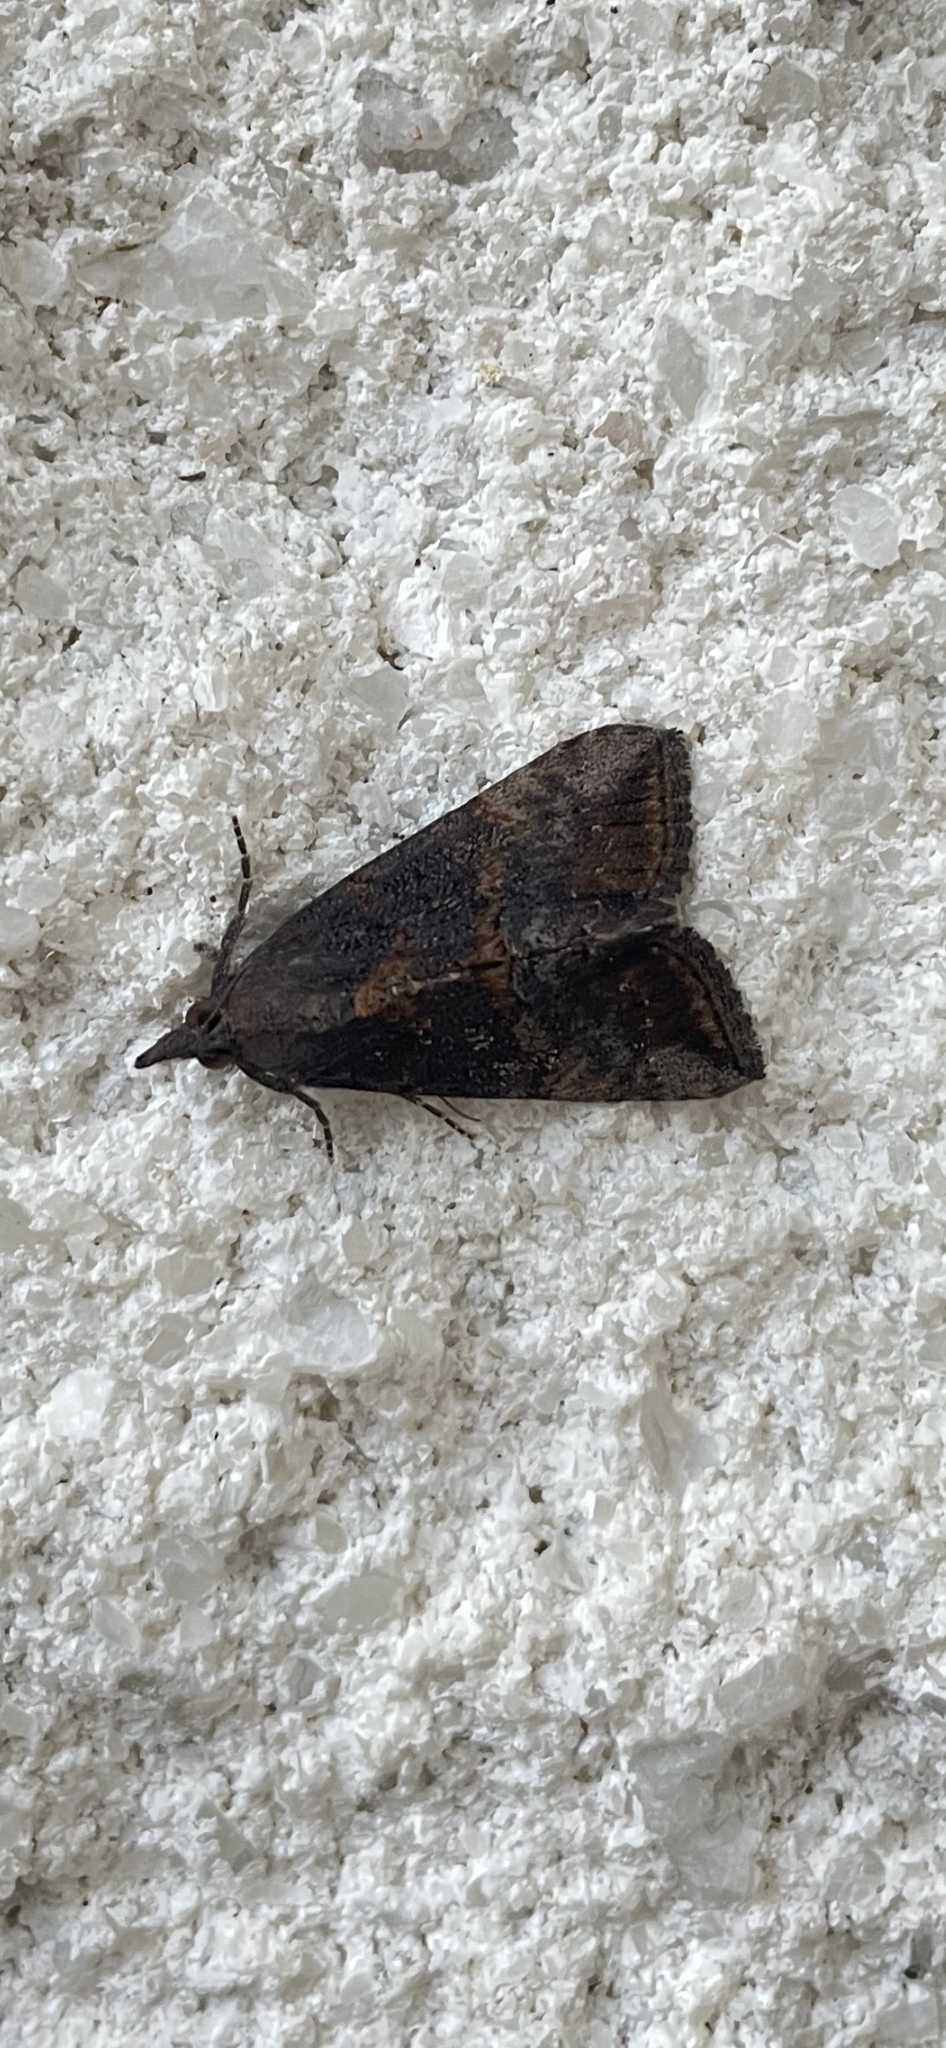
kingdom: Animalia
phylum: Arthropoda
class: Insecta
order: Lepidoptera
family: Erebidae
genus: Hypena
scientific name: Hypena scabra
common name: Green cloverworm
